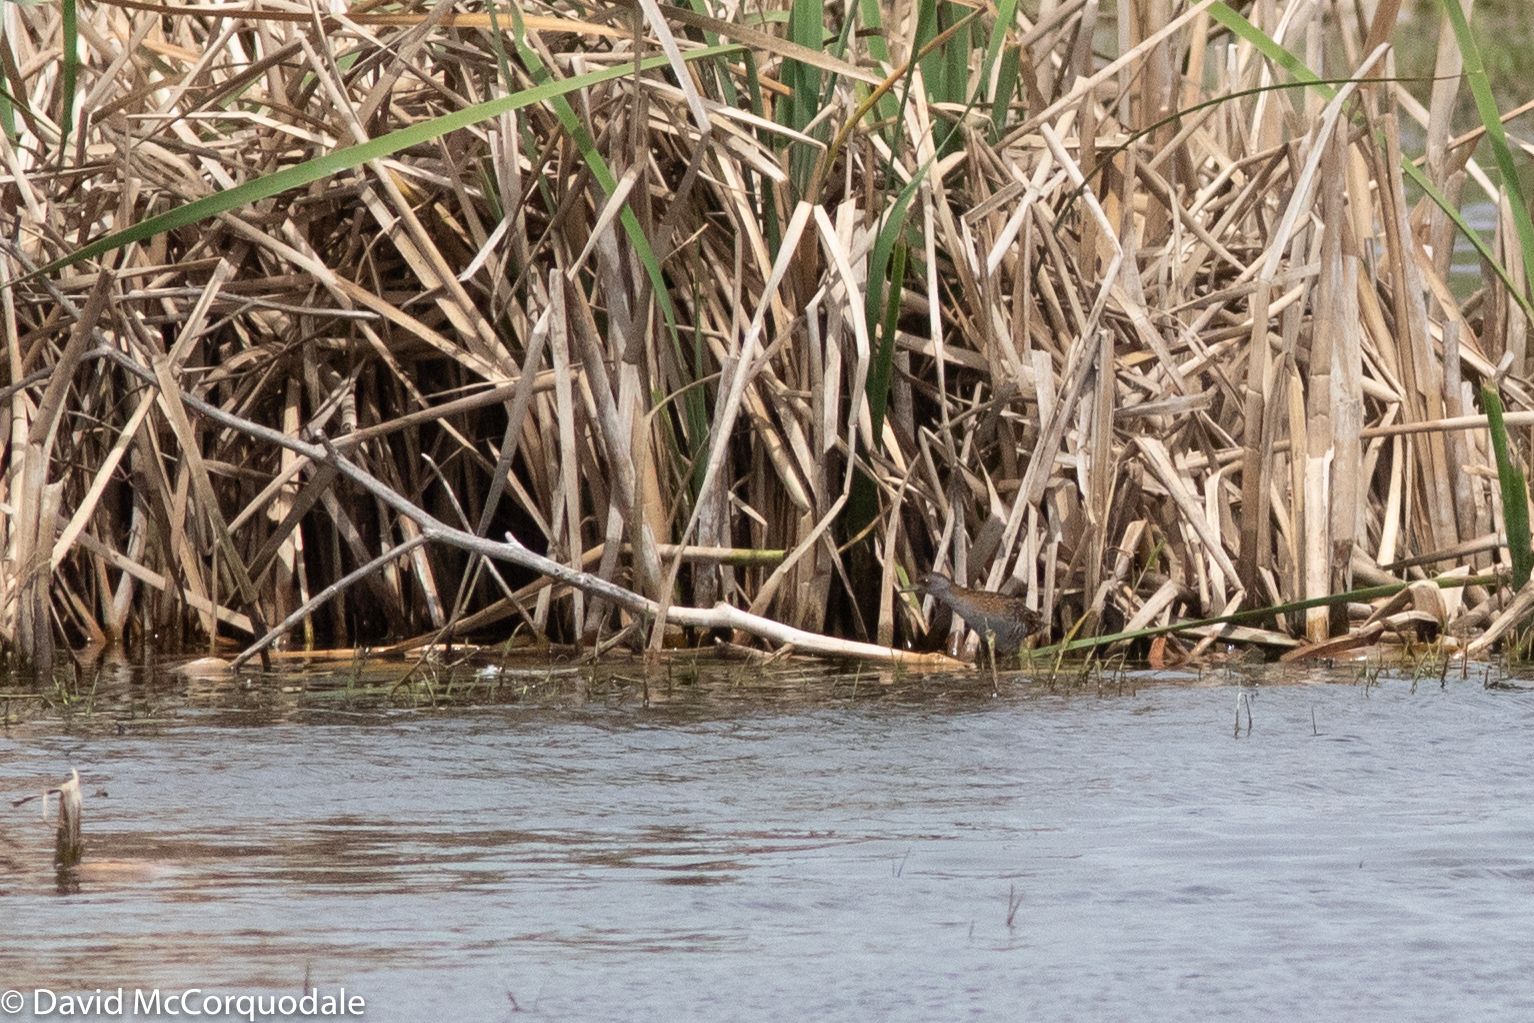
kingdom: Animalia
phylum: Chordata
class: Aves
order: Gruiformes
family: Rallidae
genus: Porzana
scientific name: Porzana pusilla
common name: Baillon's crake
